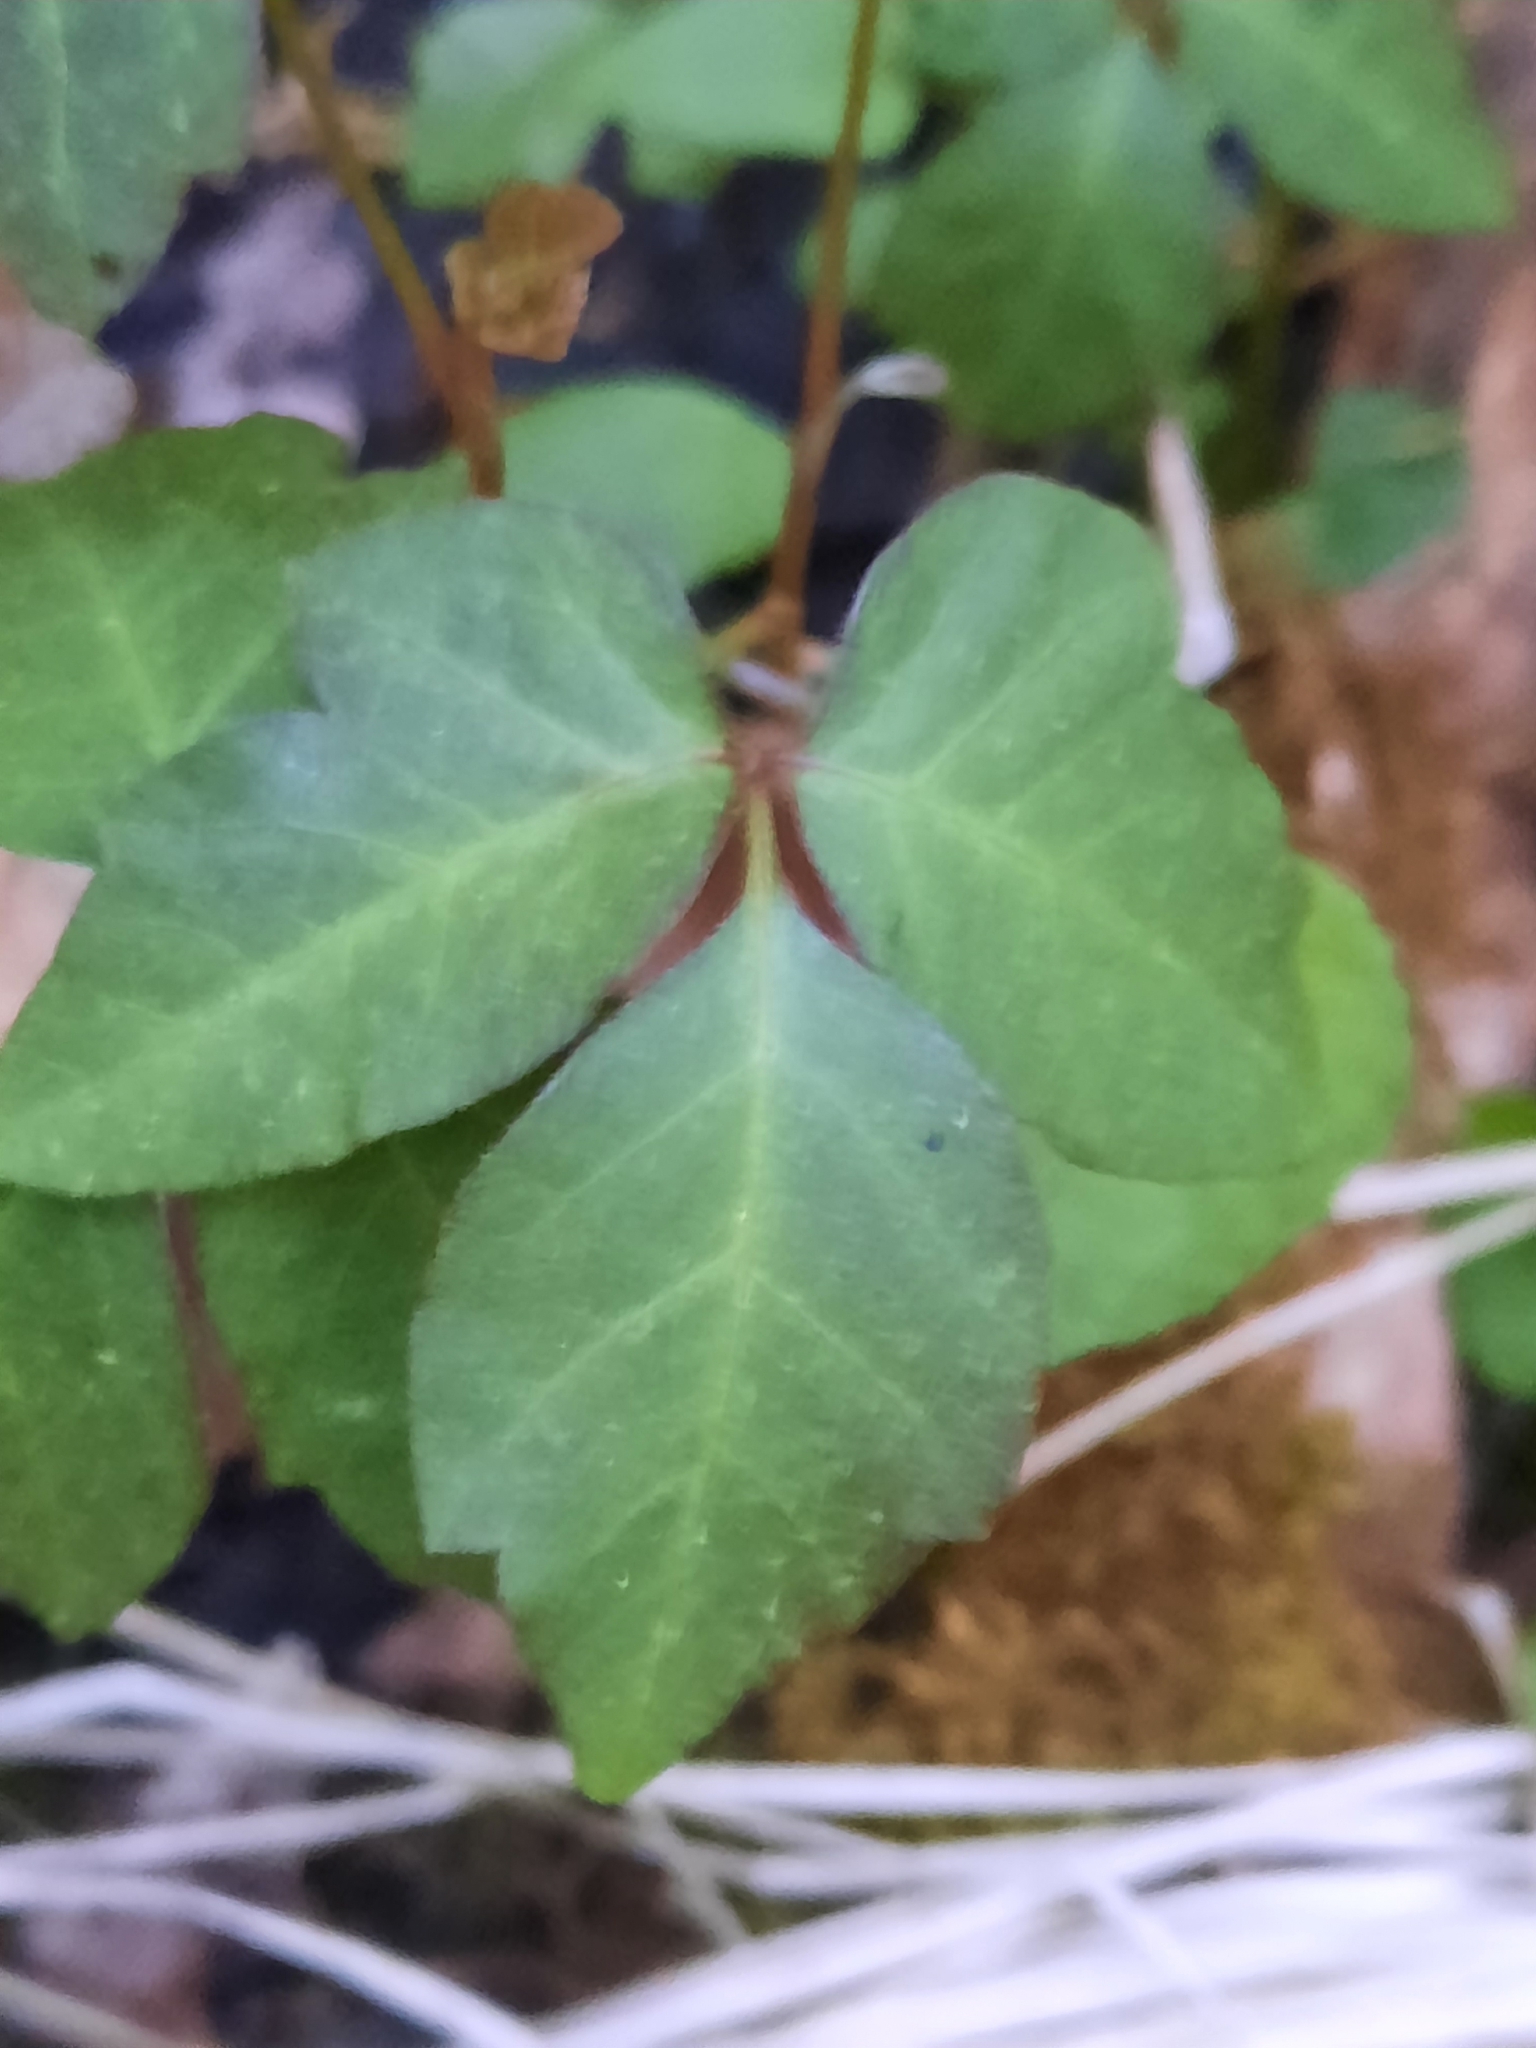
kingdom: Plantae
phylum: Tracheophyta
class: Magnoliopsida
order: Sapindales
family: Anacardiaceae
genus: Toxicodendron
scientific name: Toxicodendron radicans
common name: Poison ivy
